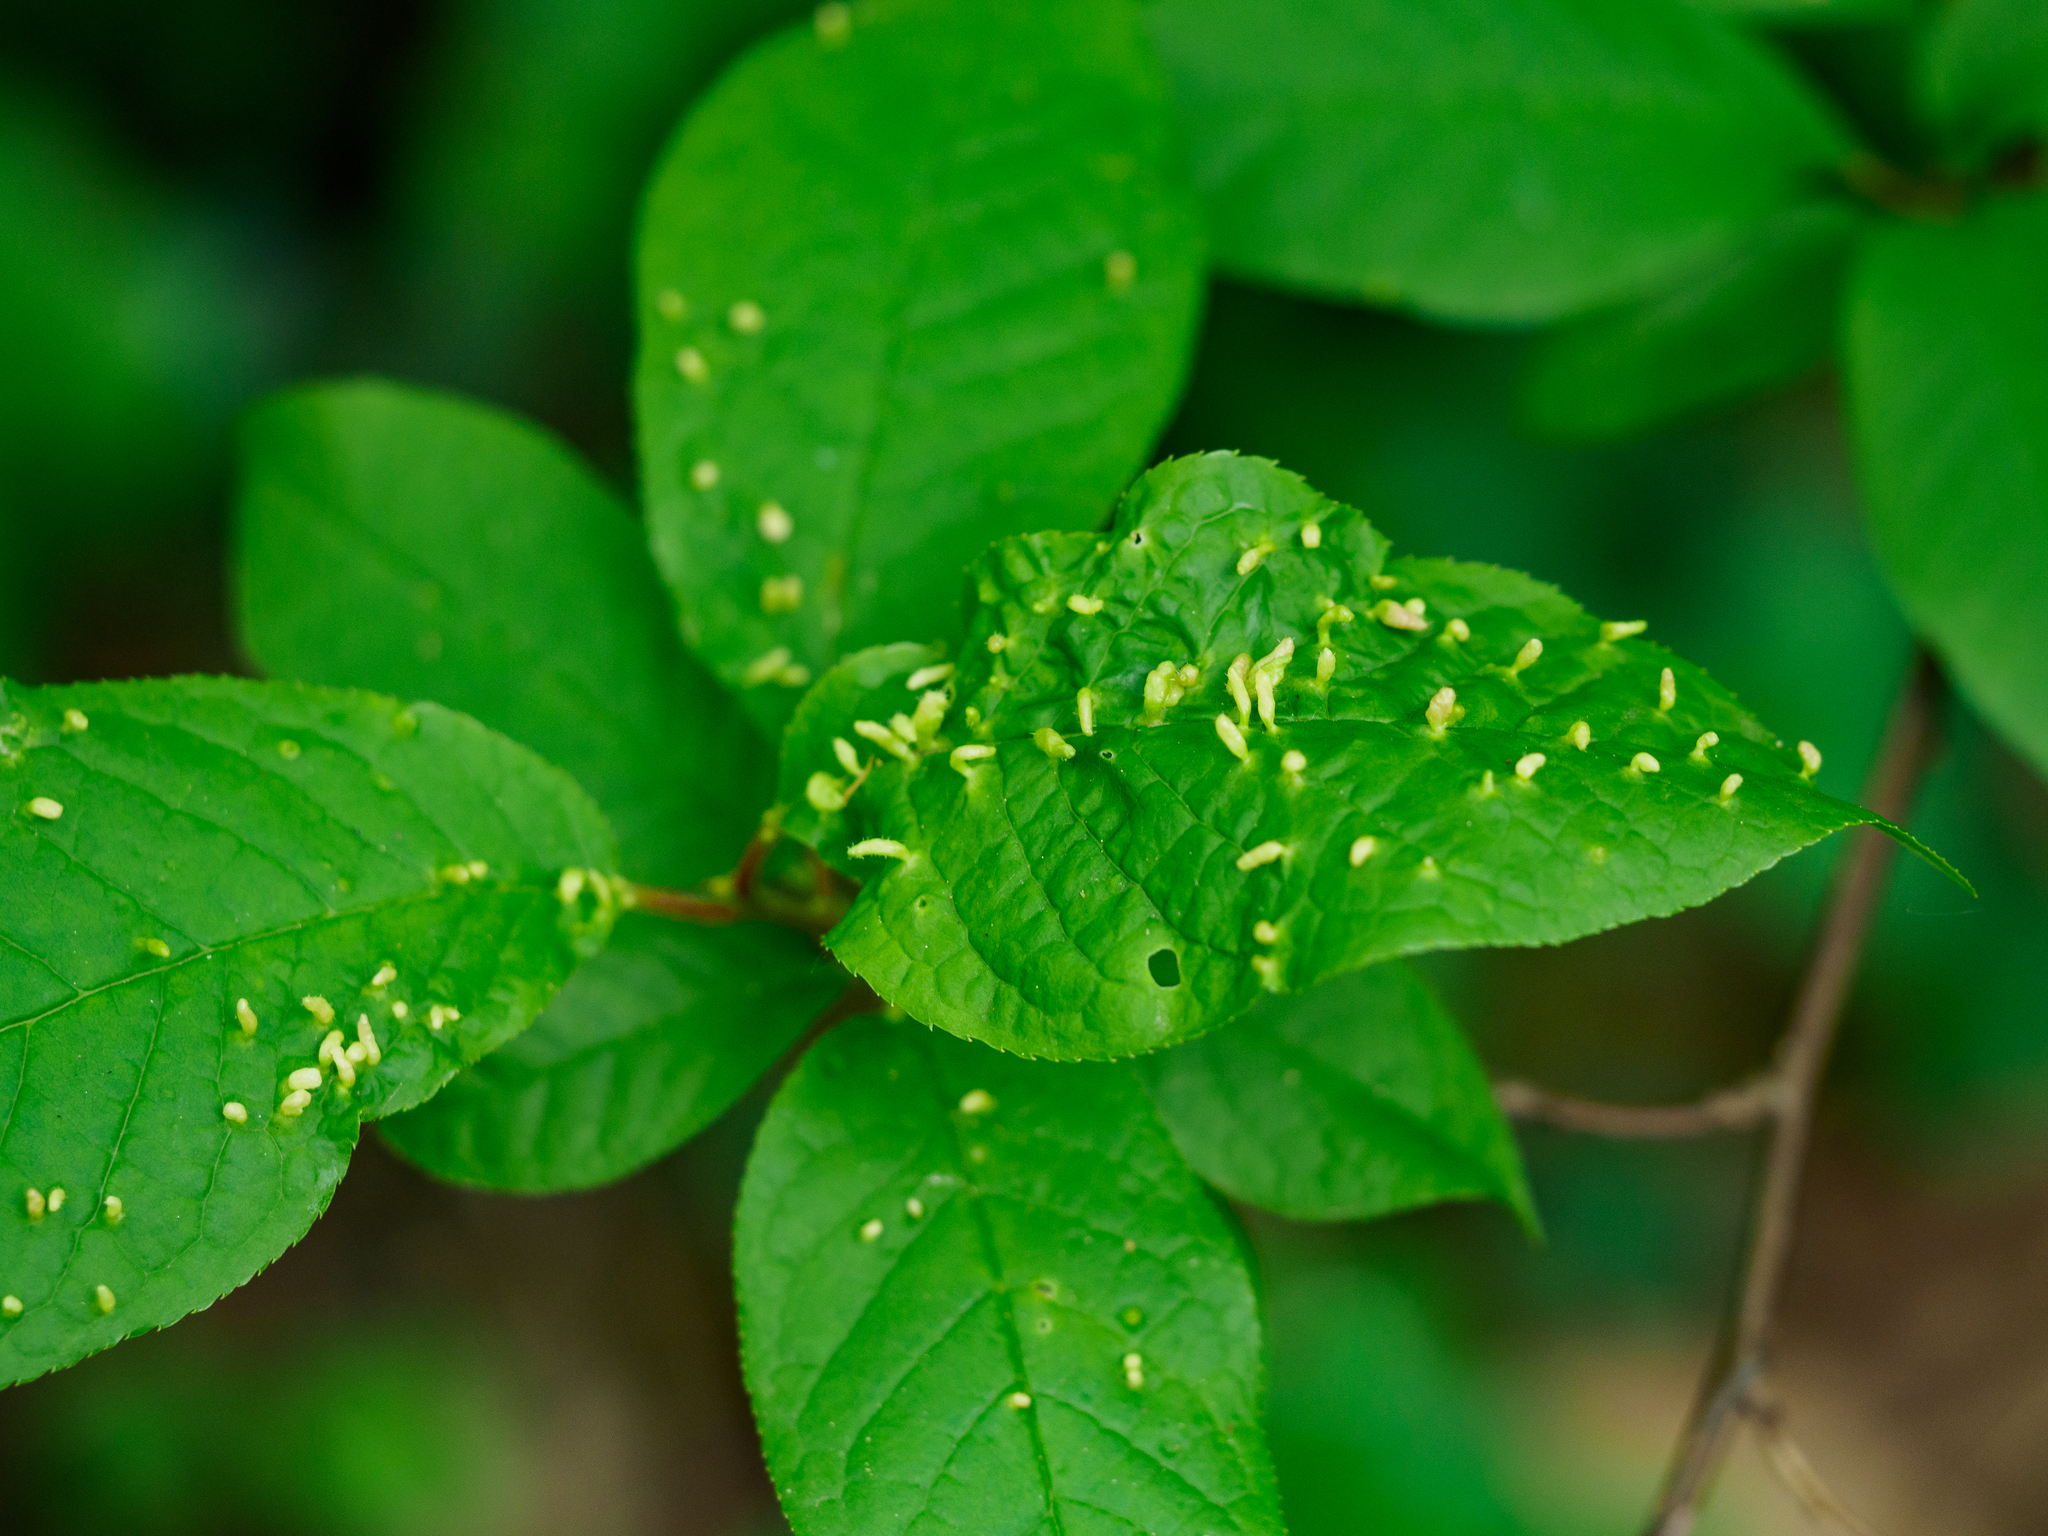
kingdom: Animalia
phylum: Arthropoda
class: Arachnida
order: Trombidiformes
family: Eriophyidae
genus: Phyllocoptes
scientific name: Phyllocoptes eupadi
